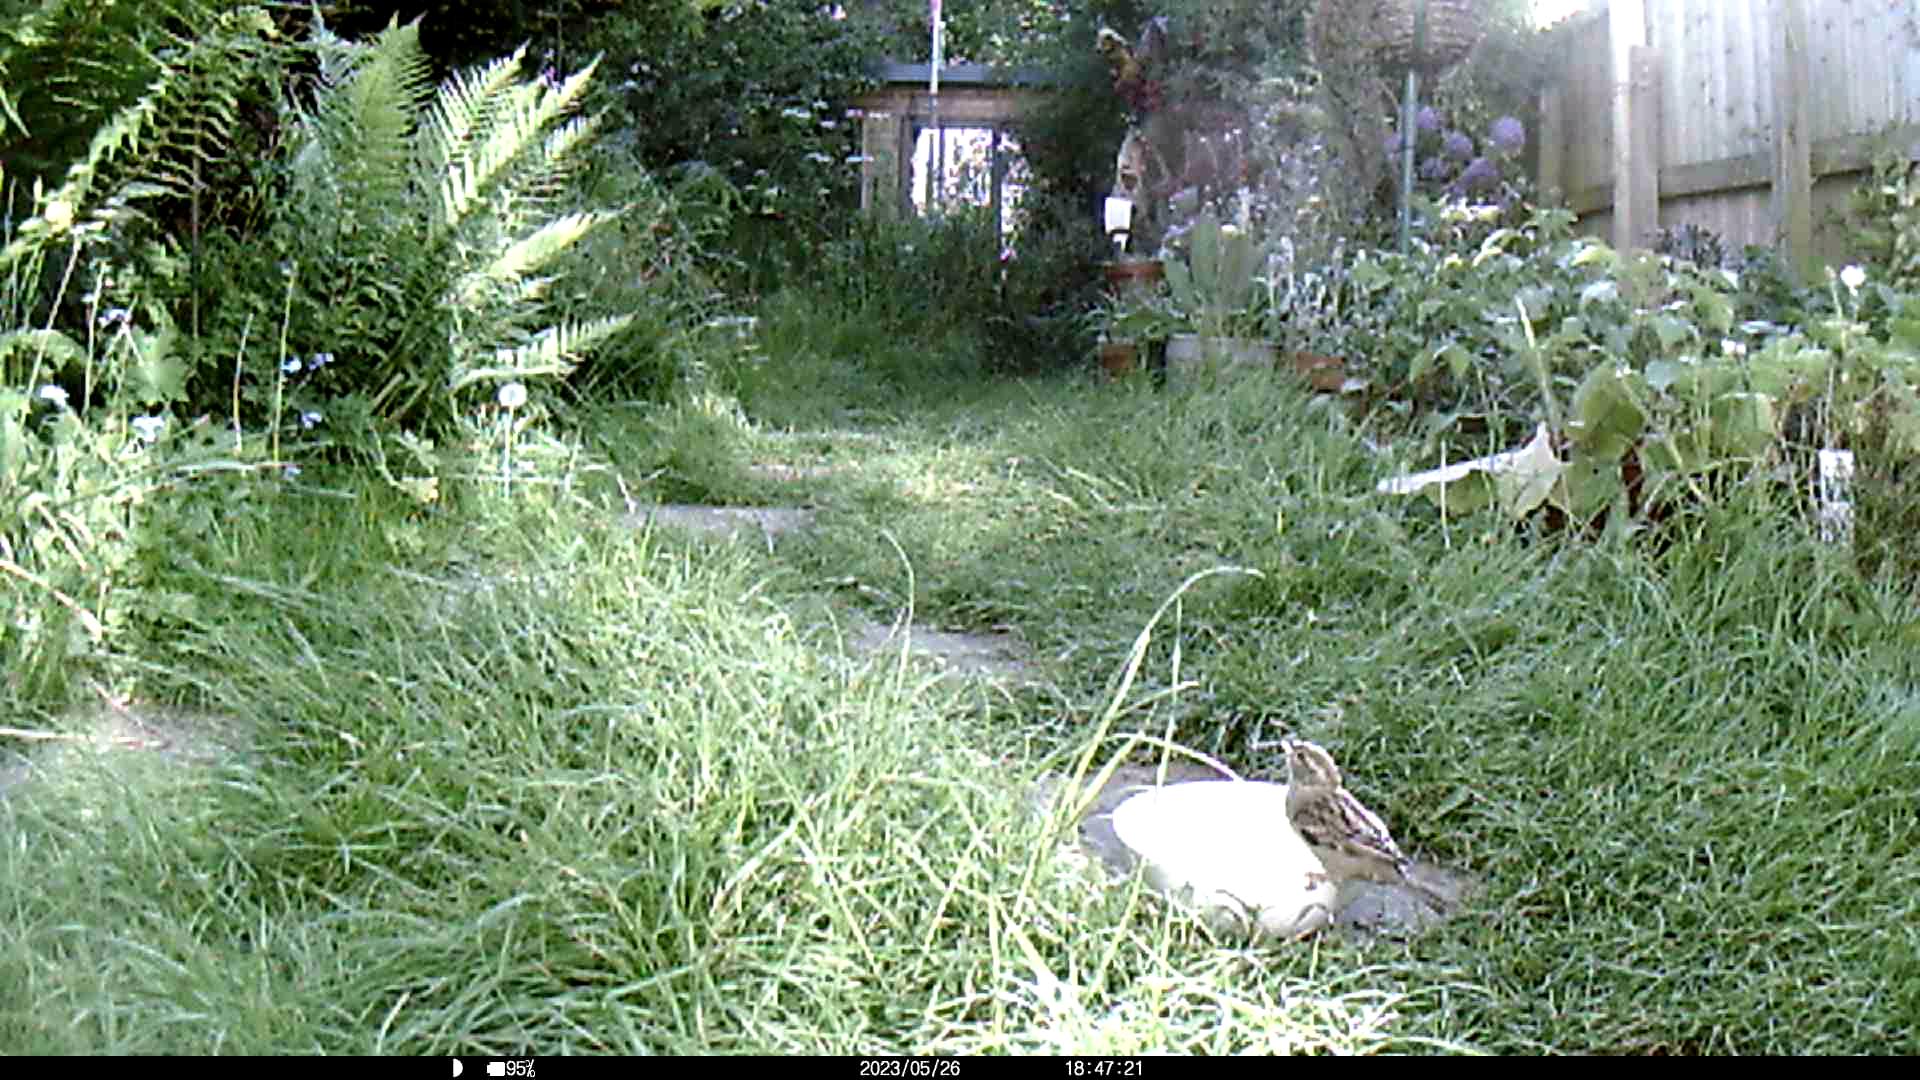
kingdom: Animalia
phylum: Chordata
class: Aves
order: Passeriformes
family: Passeridae
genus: Passer
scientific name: Passer domesticus
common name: House sparrow
